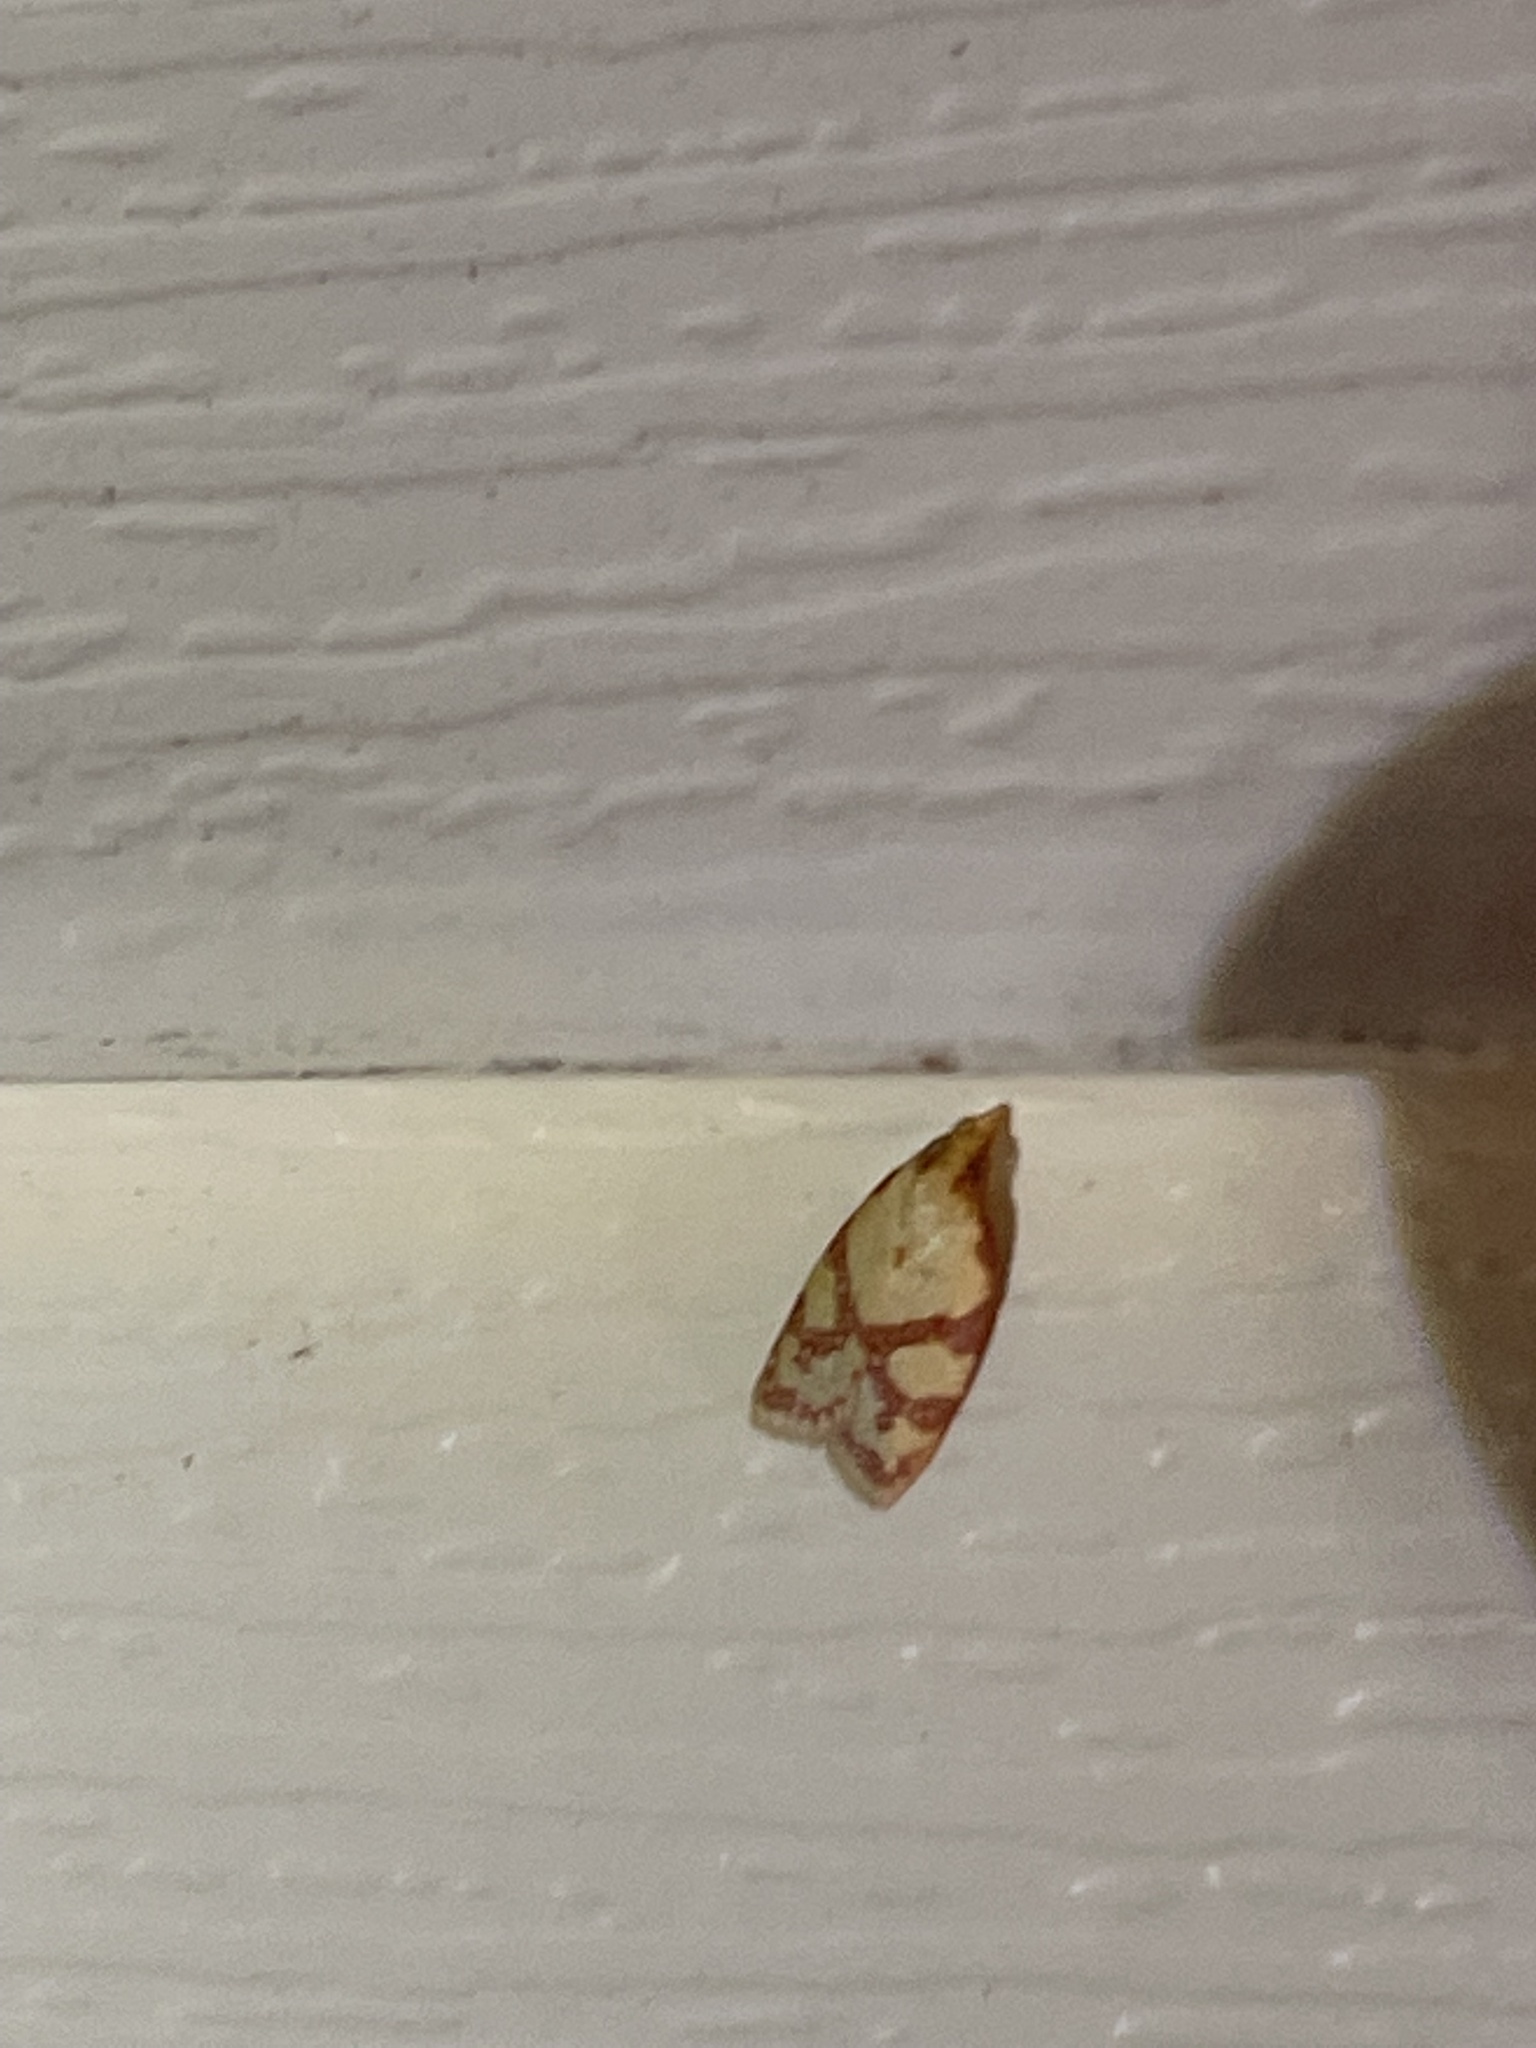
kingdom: Animalia
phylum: Arthropoda
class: Insecta
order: Lepidoptera
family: Tortricidae
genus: Sparganothis
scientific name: Sparganothis sulfureana
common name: Sparganothis fruitworm moth
